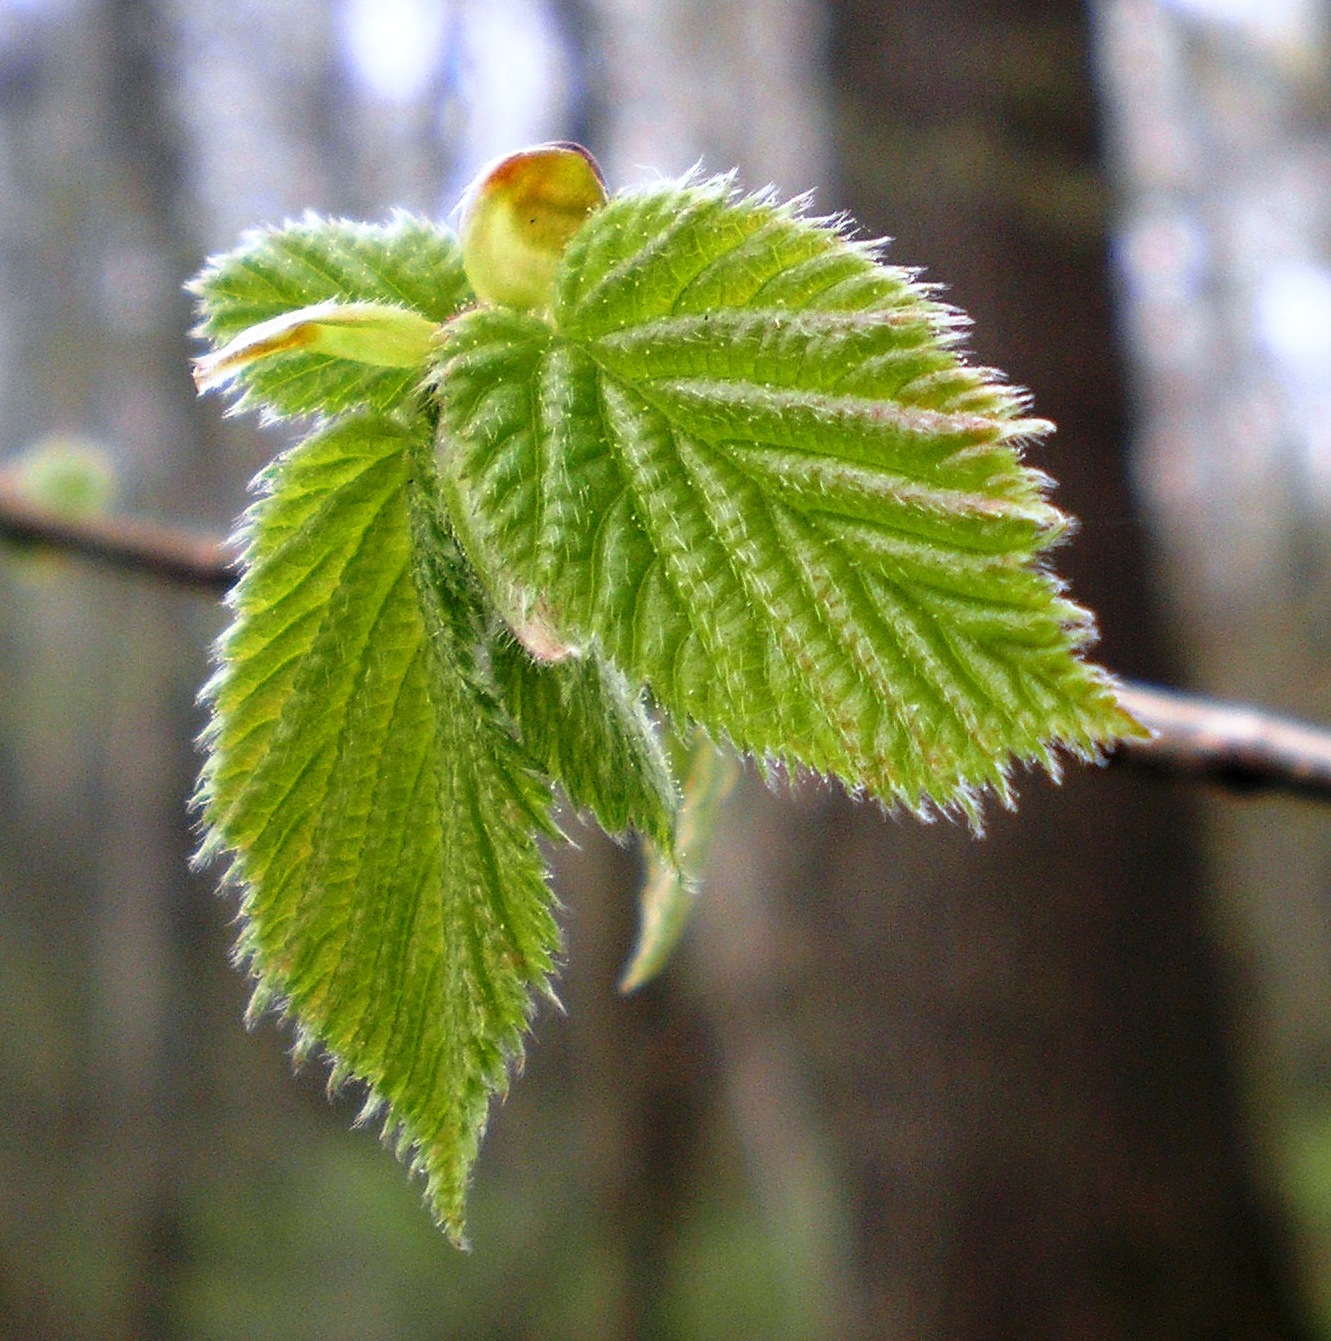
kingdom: Plantae
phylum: Tracheophyta
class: Magnoliopsida
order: Fagales
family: Betulaceae
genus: Corylus
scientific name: Corylus avellana
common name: European hazel
